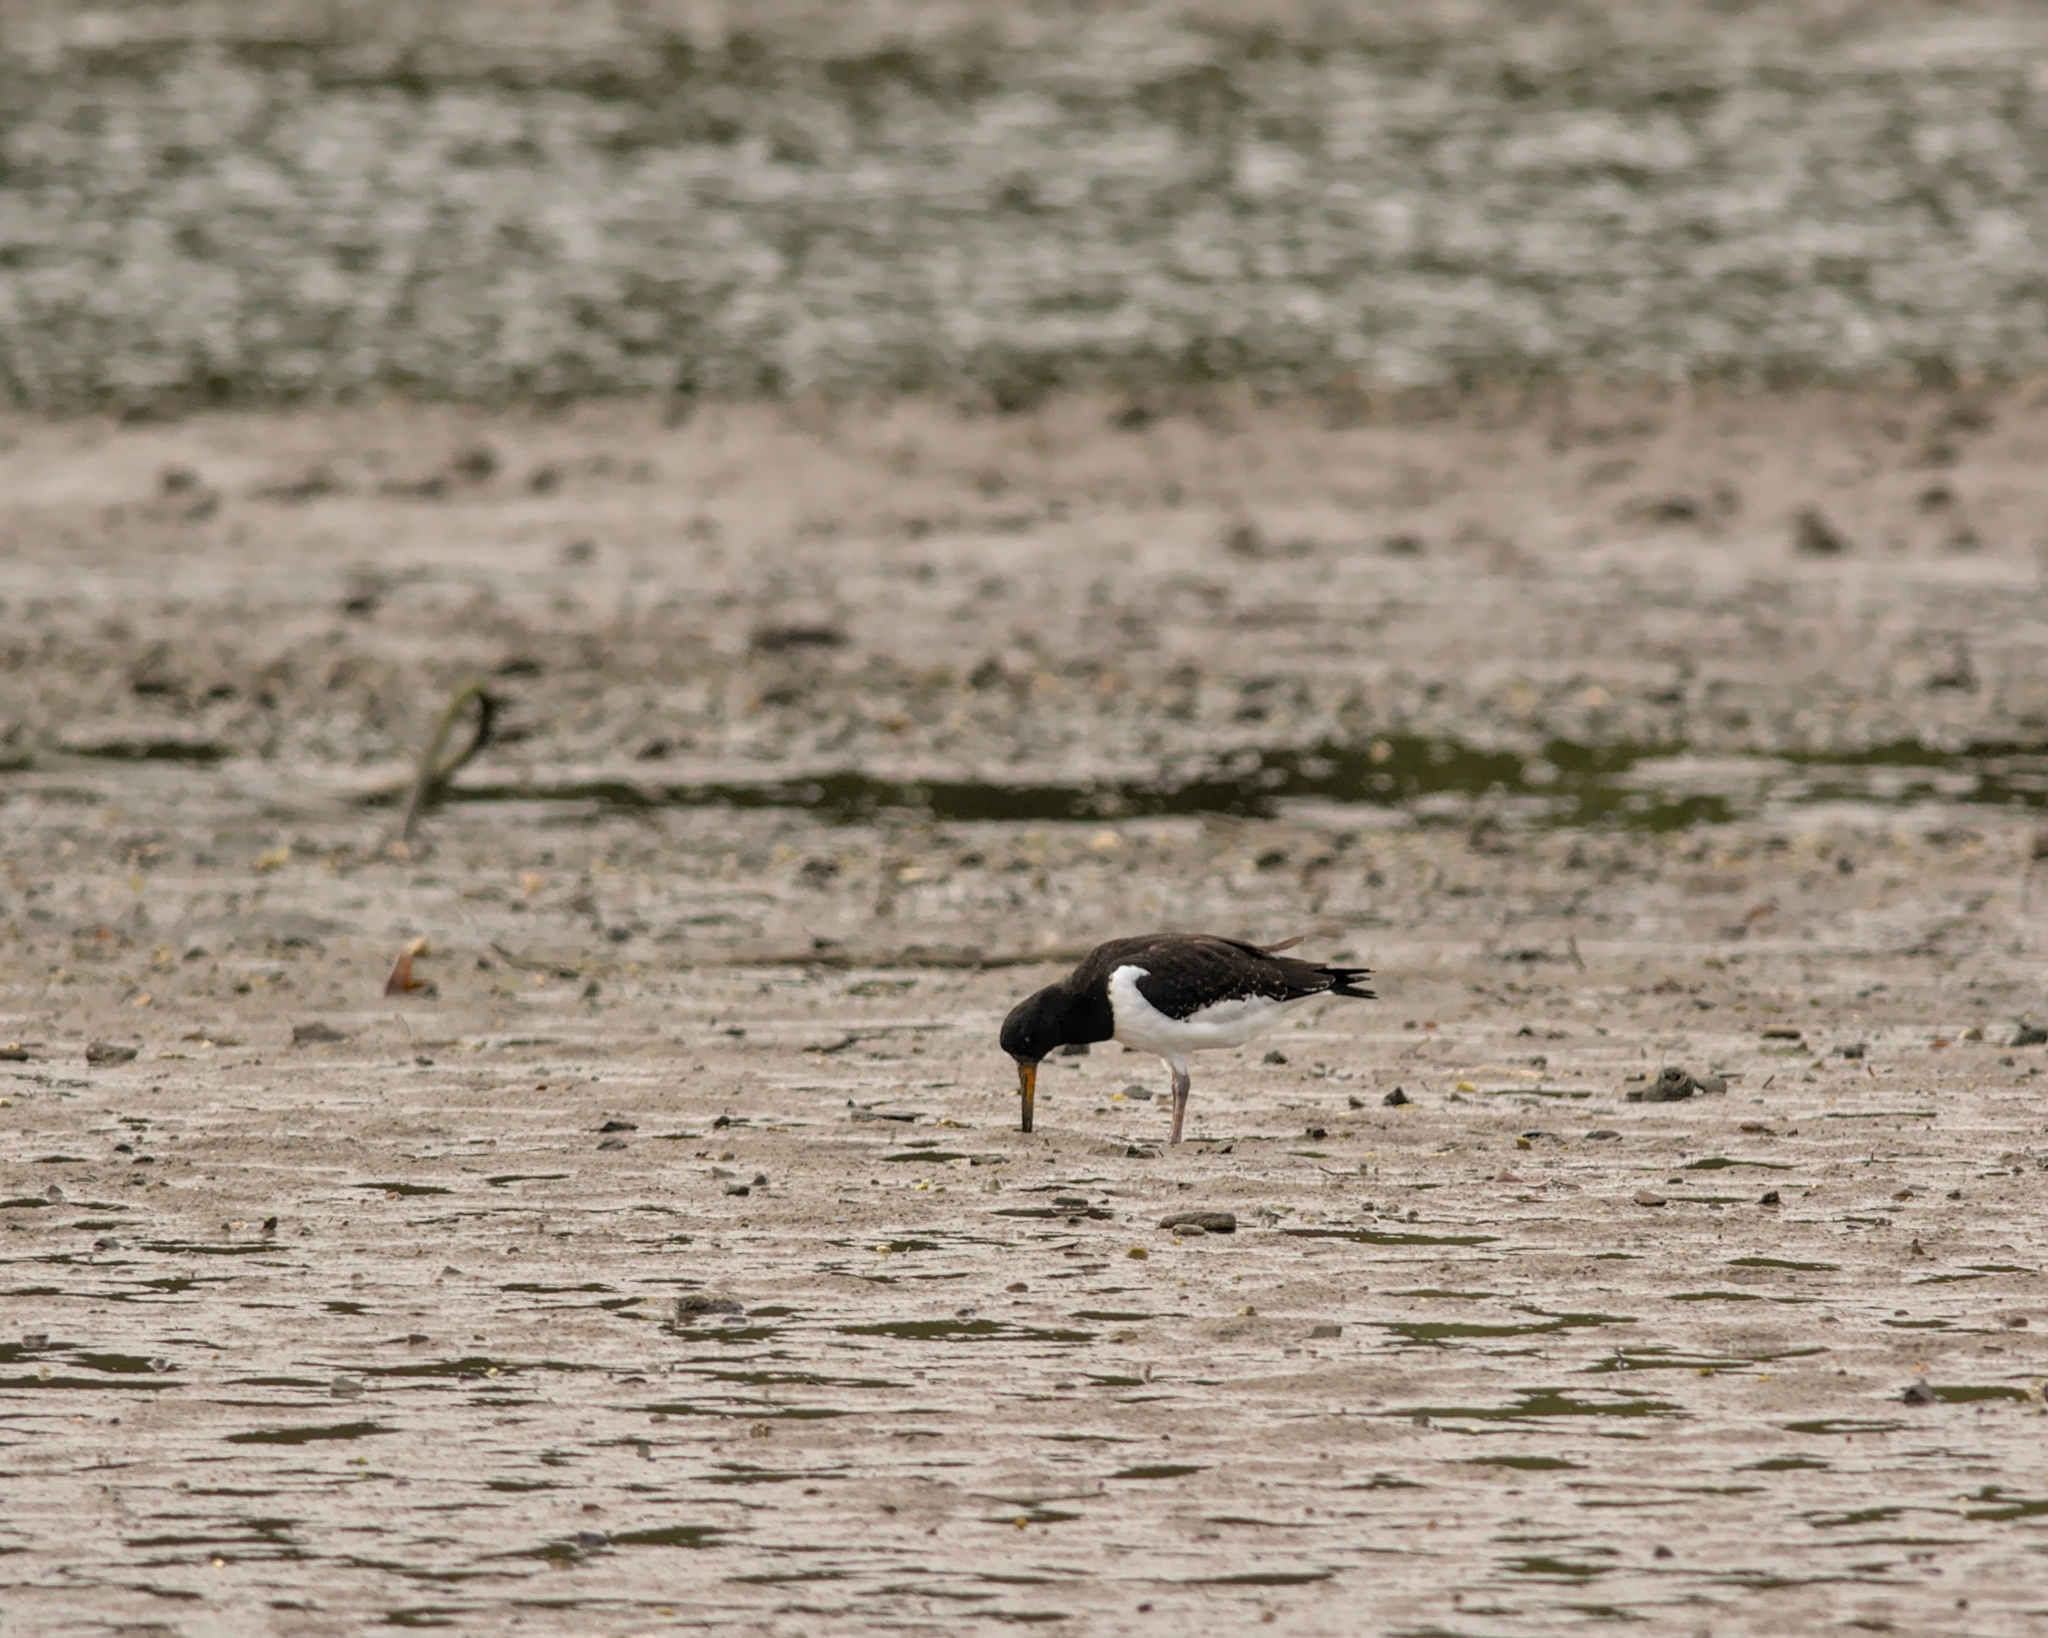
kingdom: Animalia
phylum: Chordata
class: Aves
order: Charadriiformes
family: Haematopodidae
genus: Haematopus
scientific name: Haematopus ostralegus
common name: Eurasian oystercatcher
